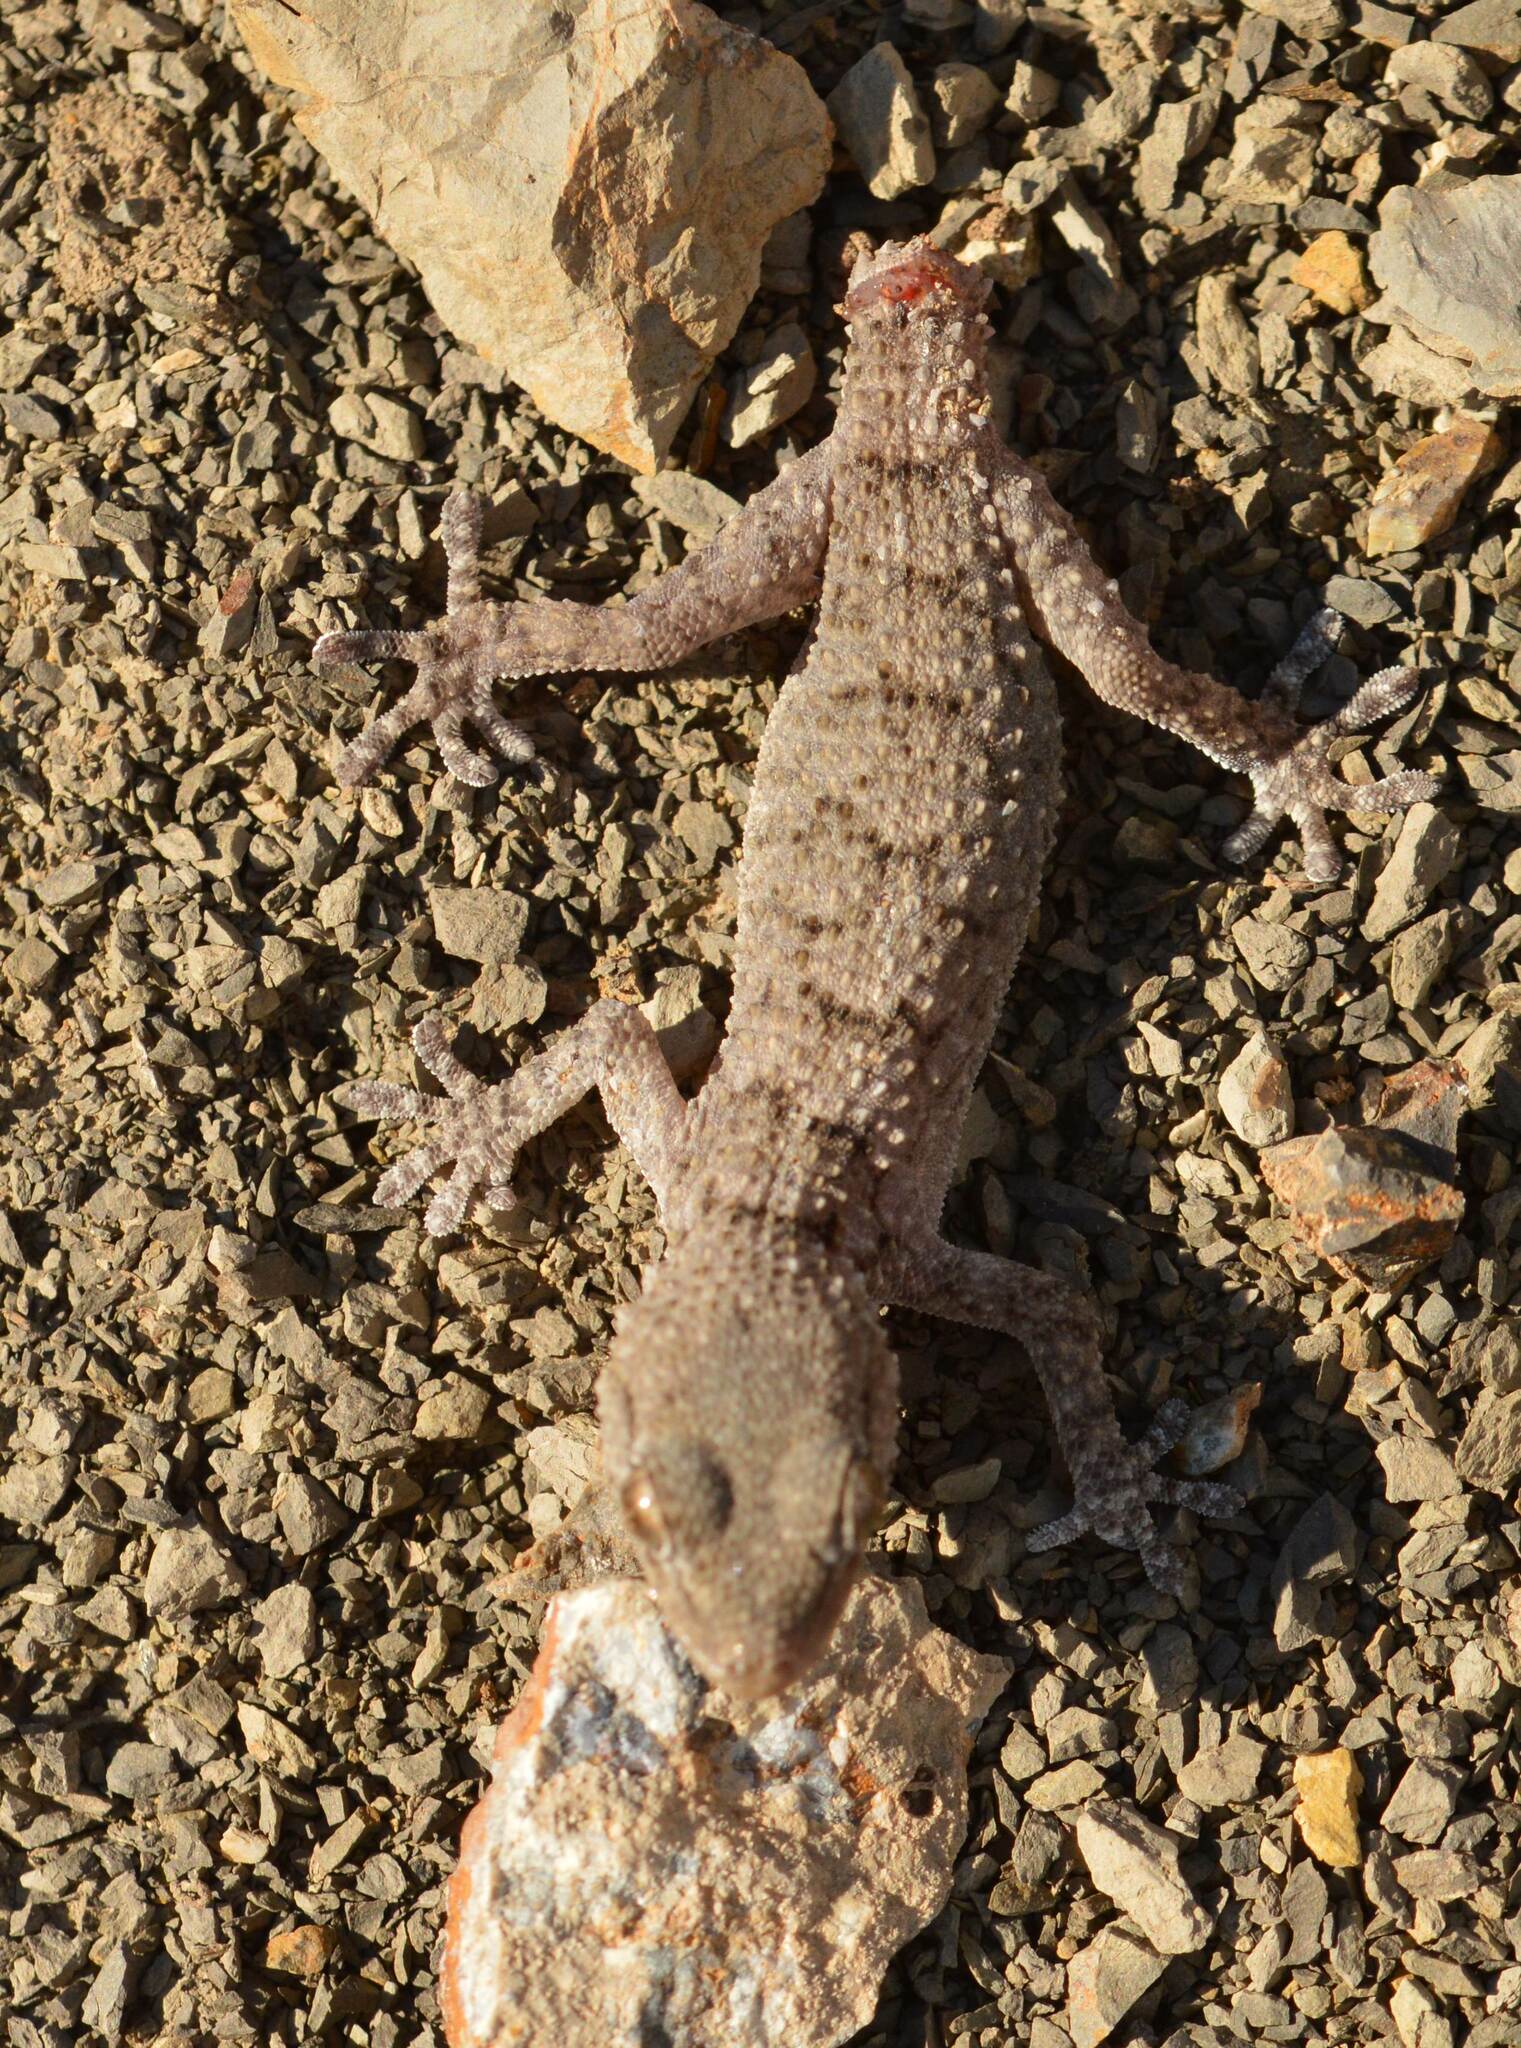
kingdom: Animalia
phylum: Chordata
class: Squamata
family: Phyllodactylidae
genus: Tarentola
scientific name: Tarentola mauritanica
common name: Moorish gecko
